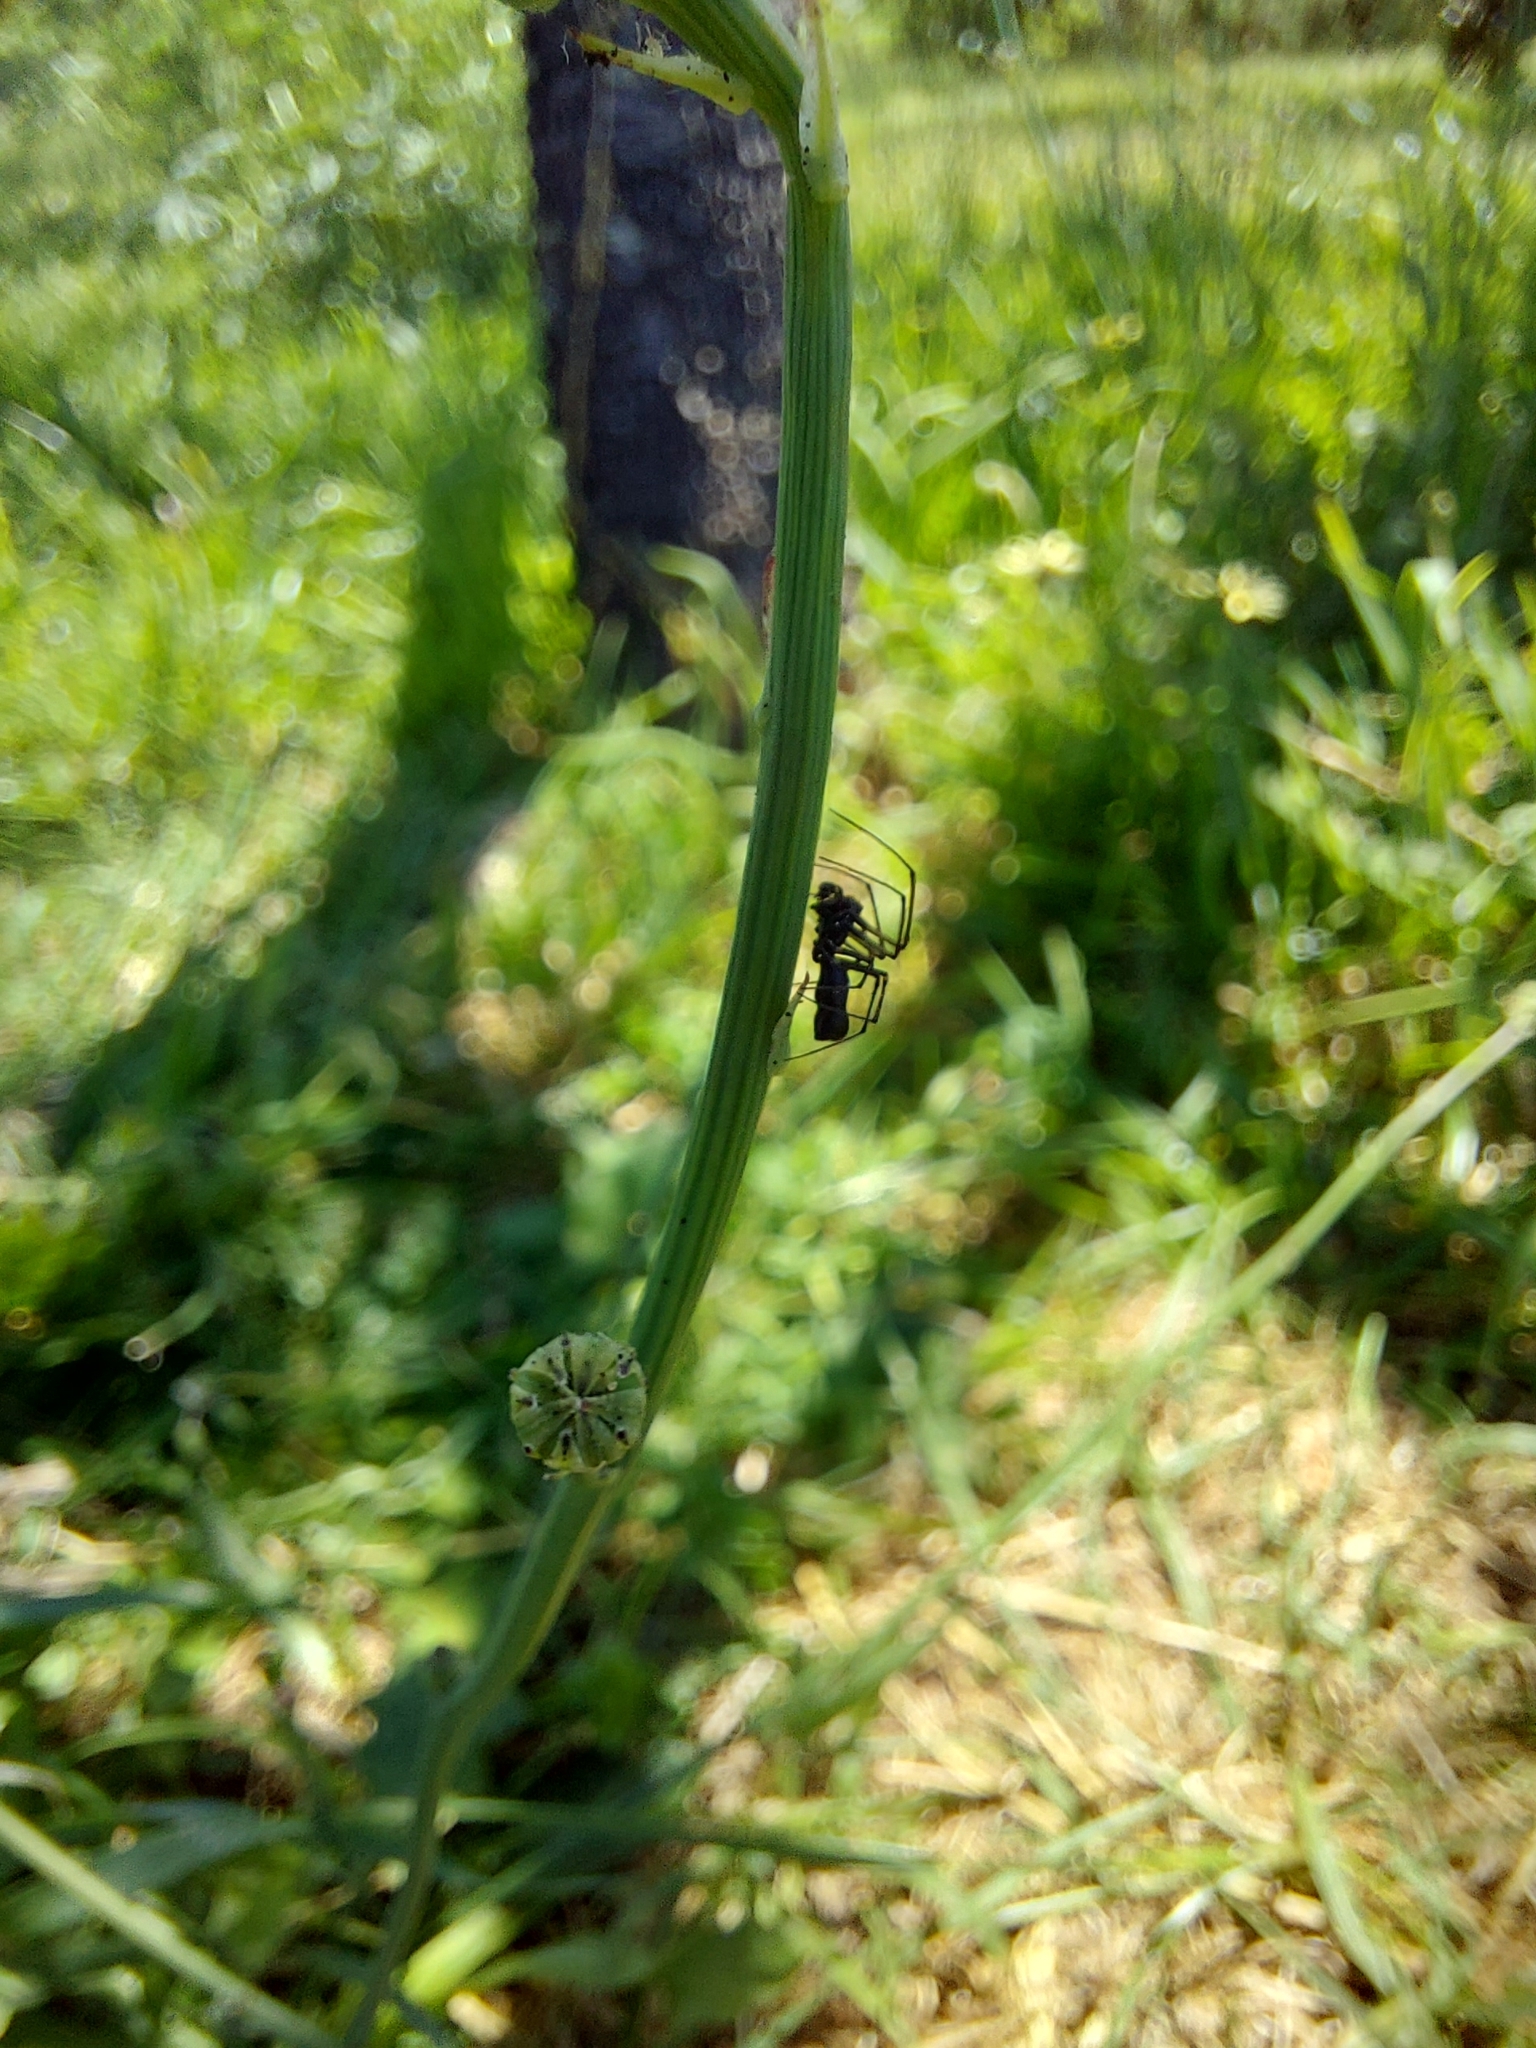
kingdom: Animalia
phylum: Arthropoda
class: Arachnida
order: Araneae
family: Linyphiidae
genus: Microlinyphia
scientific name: Microlinyphia sterilis
